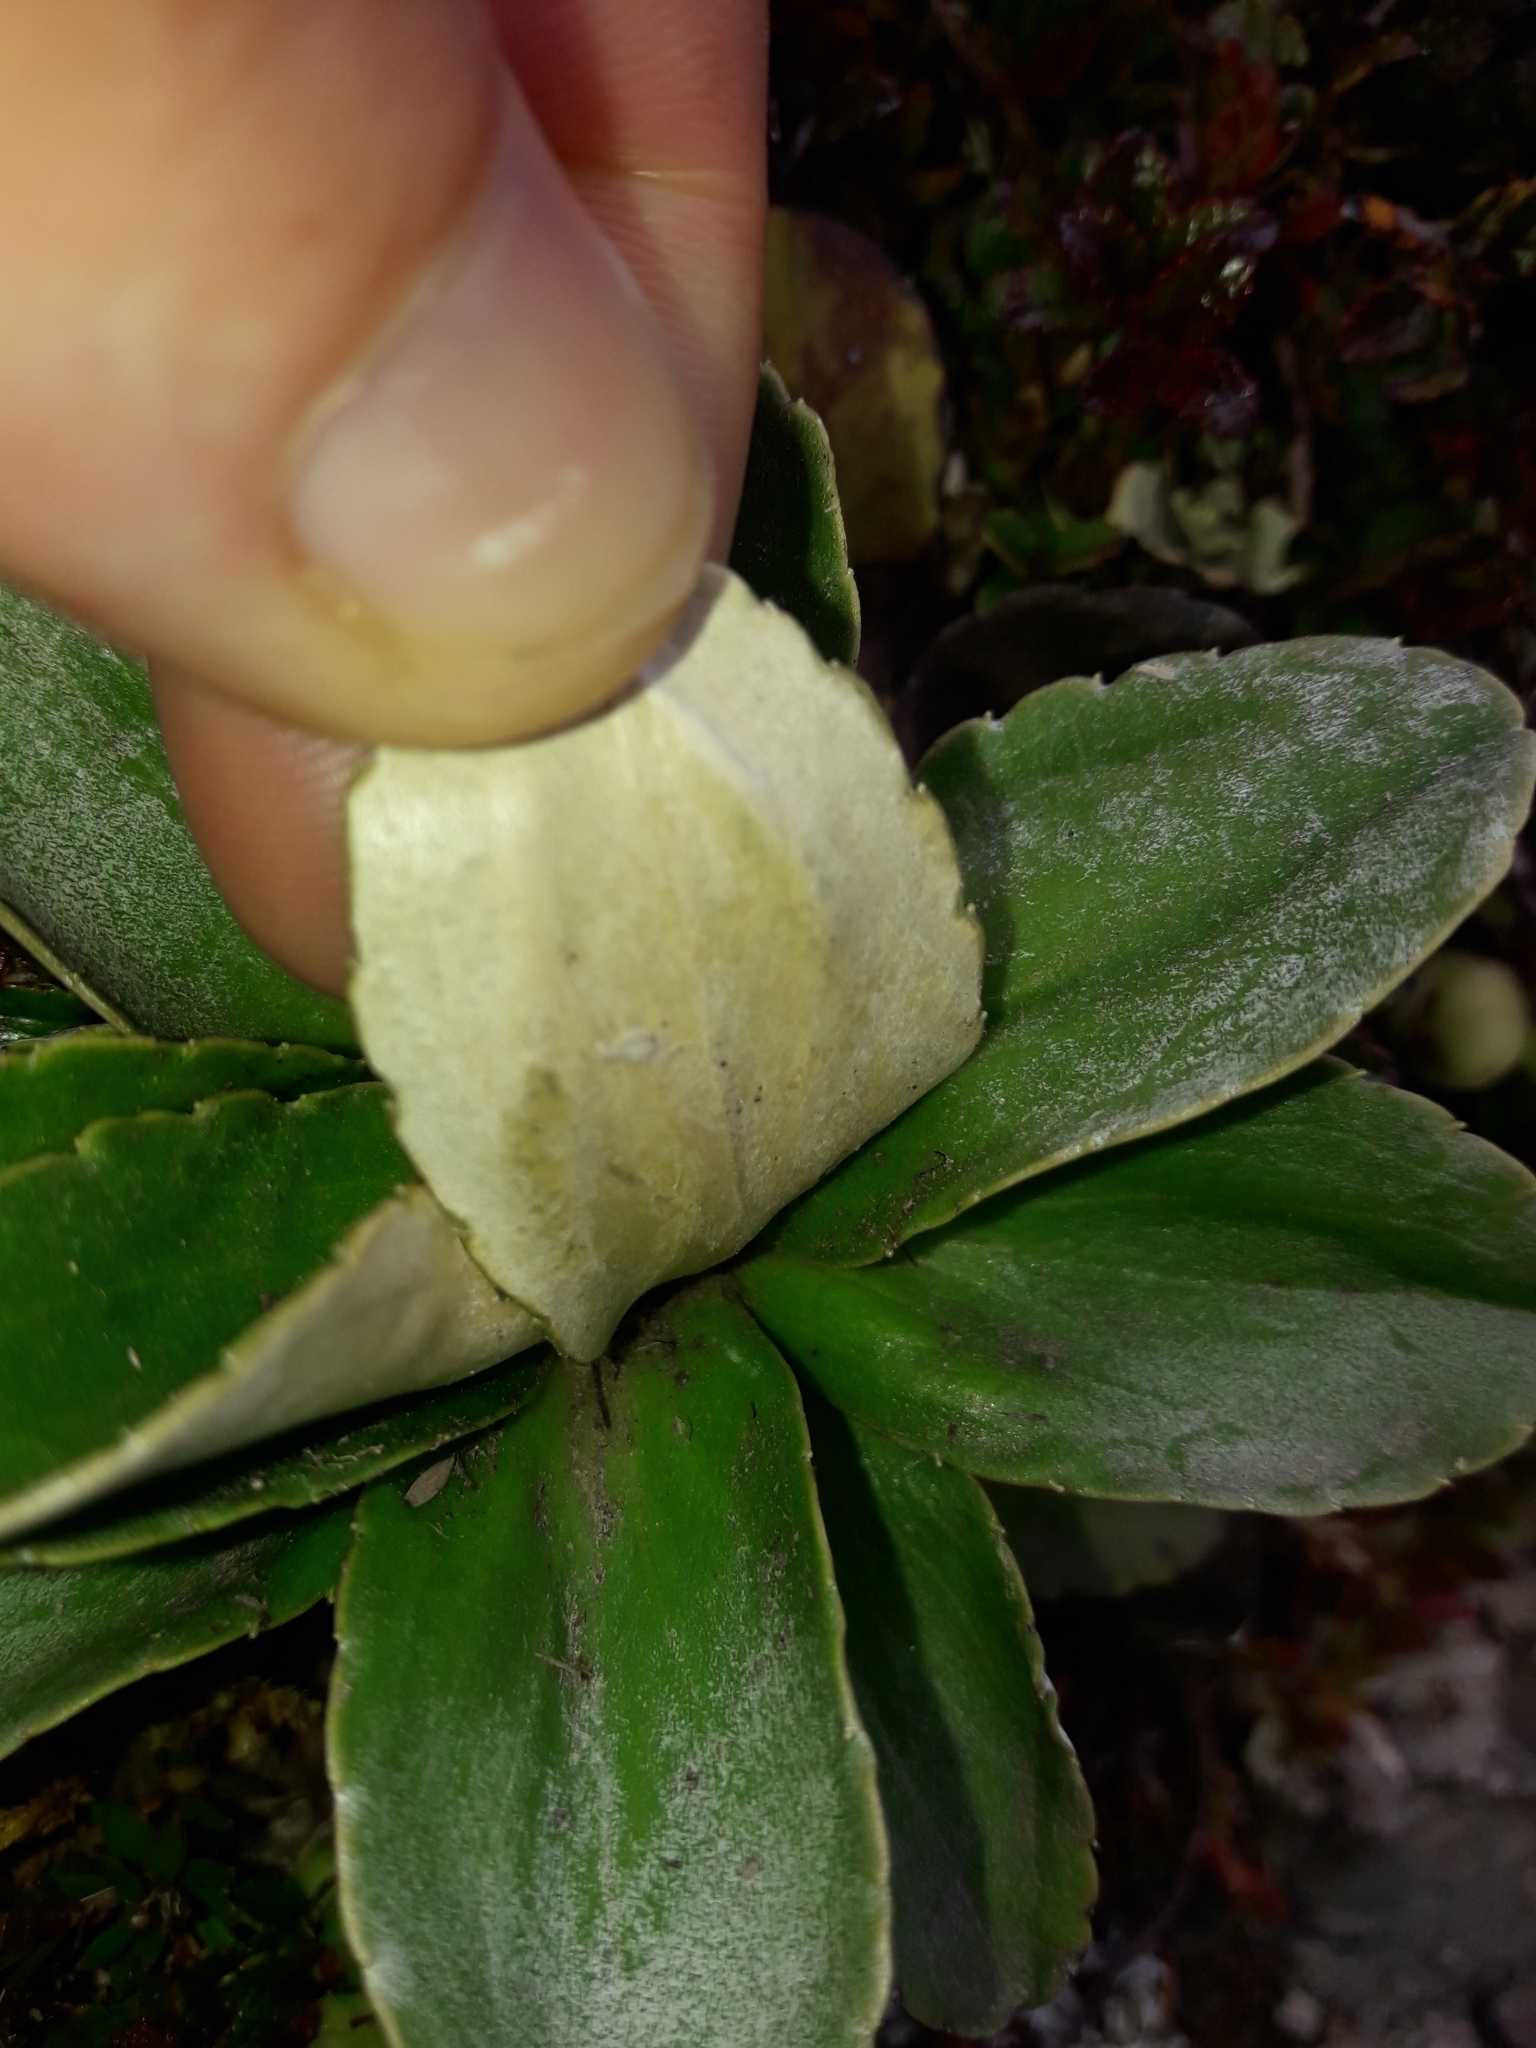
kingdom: Plantae
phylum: Tracheophyta
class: Magnoliopsida
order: Asterales
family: Asteraceae
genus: Celmisia
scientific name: Celmisia hieraciifolia
